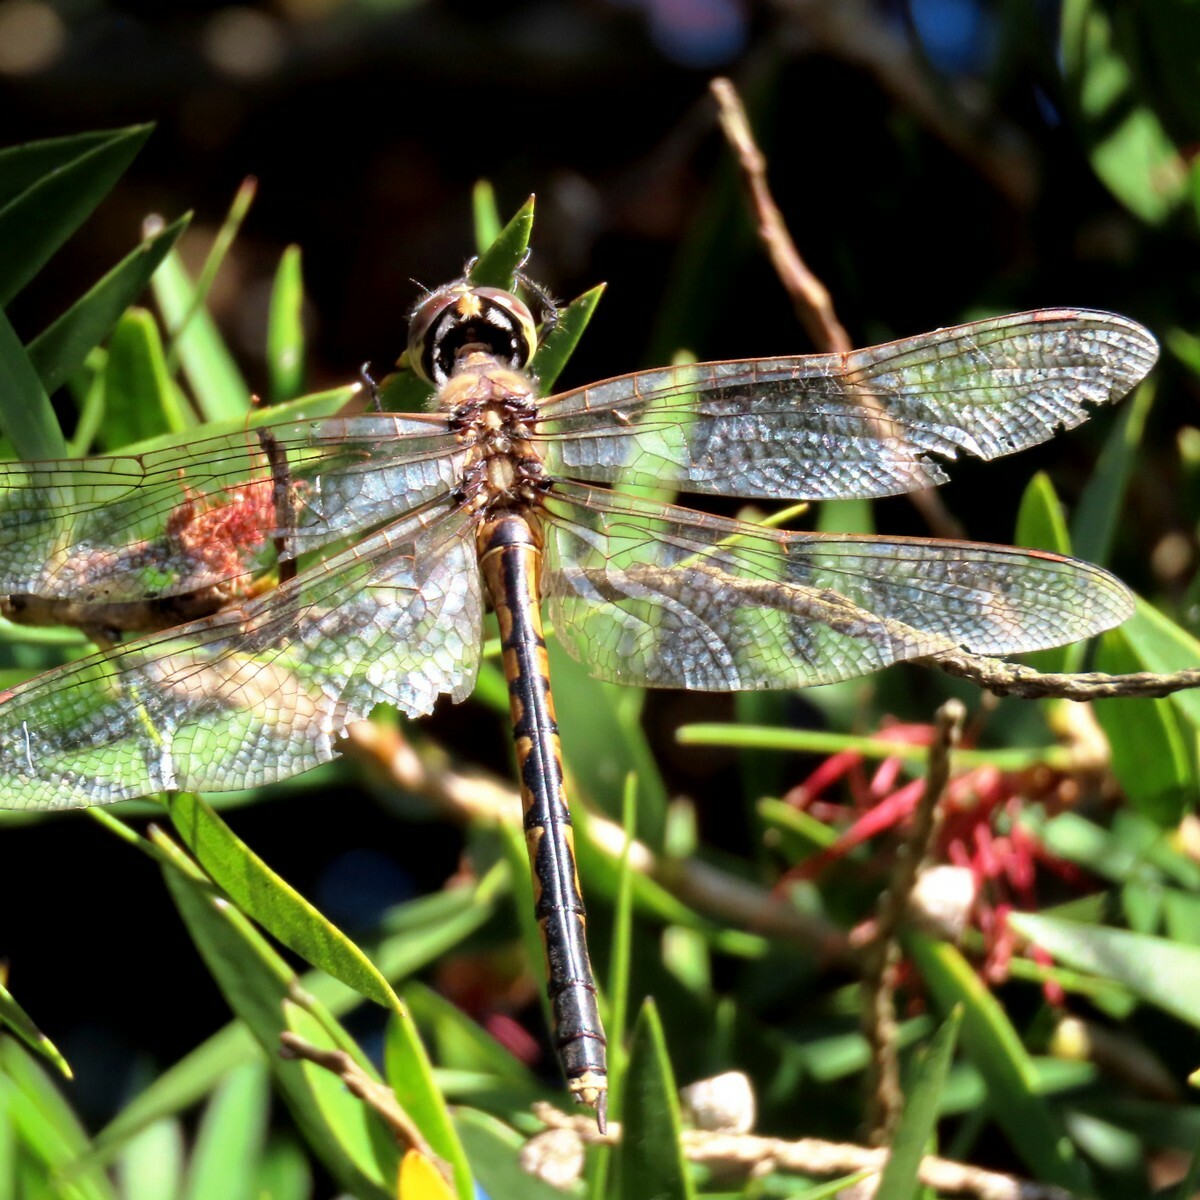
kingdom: Animalia
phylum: Arthropoda
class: Insecta
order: Odonata
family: Corduliidae
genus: Hemicordulia
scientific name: Hemicordulia tau
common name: Tau emerald
